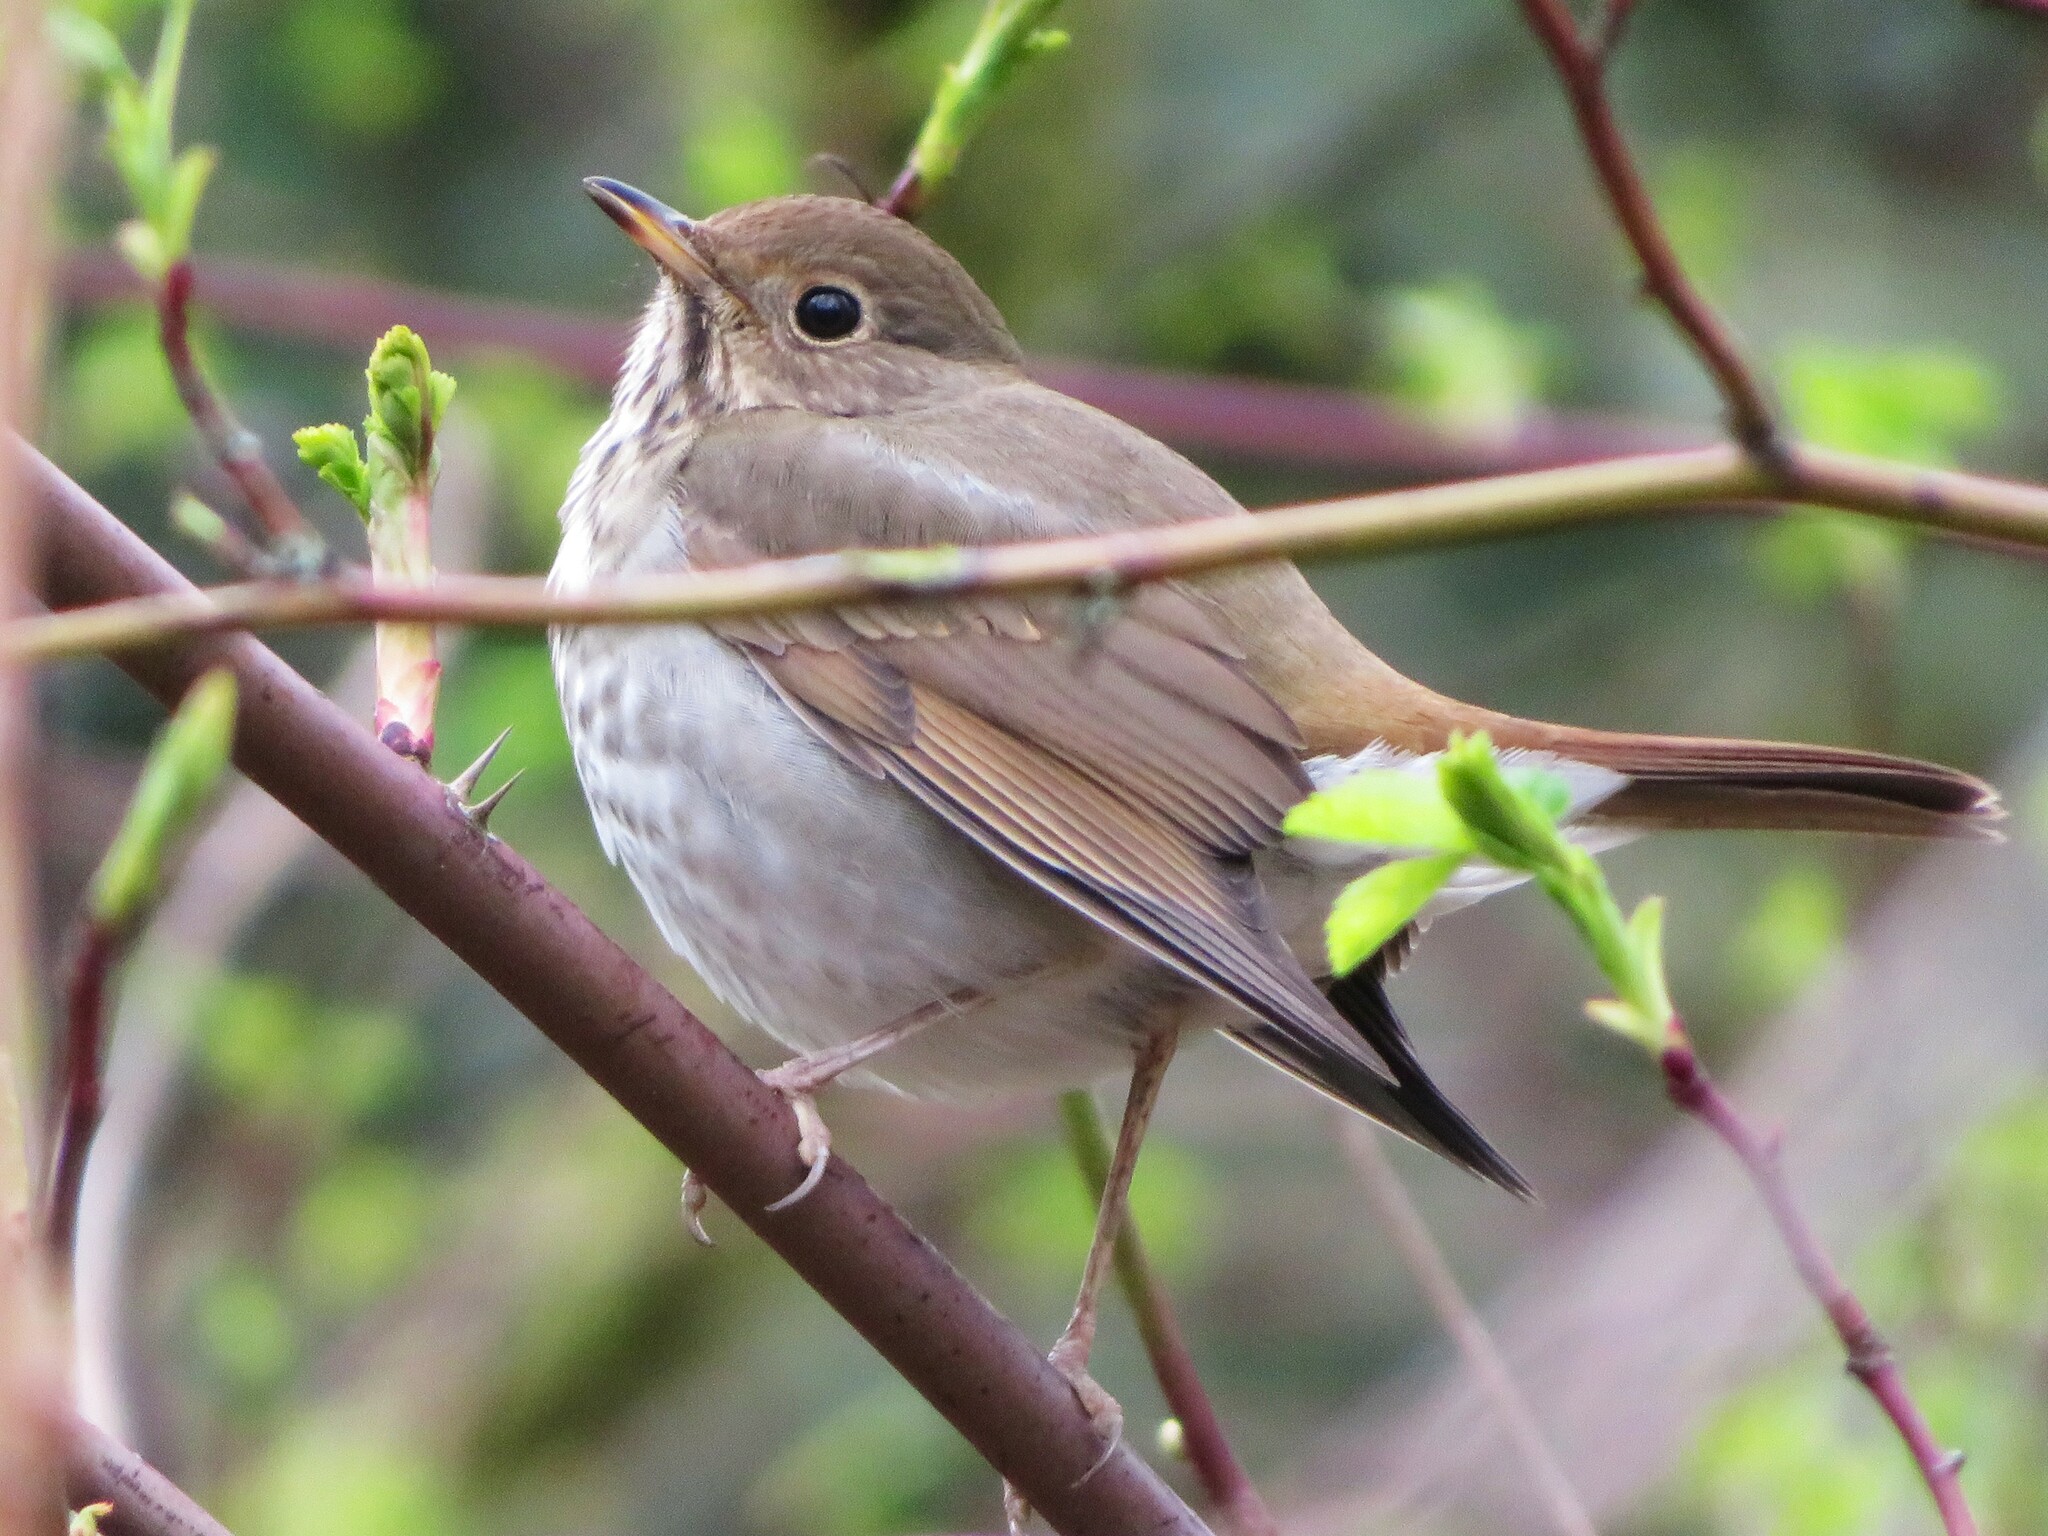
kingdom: Animalia
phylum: Chordata
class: Aves
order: Passeriformes
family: Turdidae
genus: Catharus
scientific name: Catharus guttatus
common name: Hermit thrush
